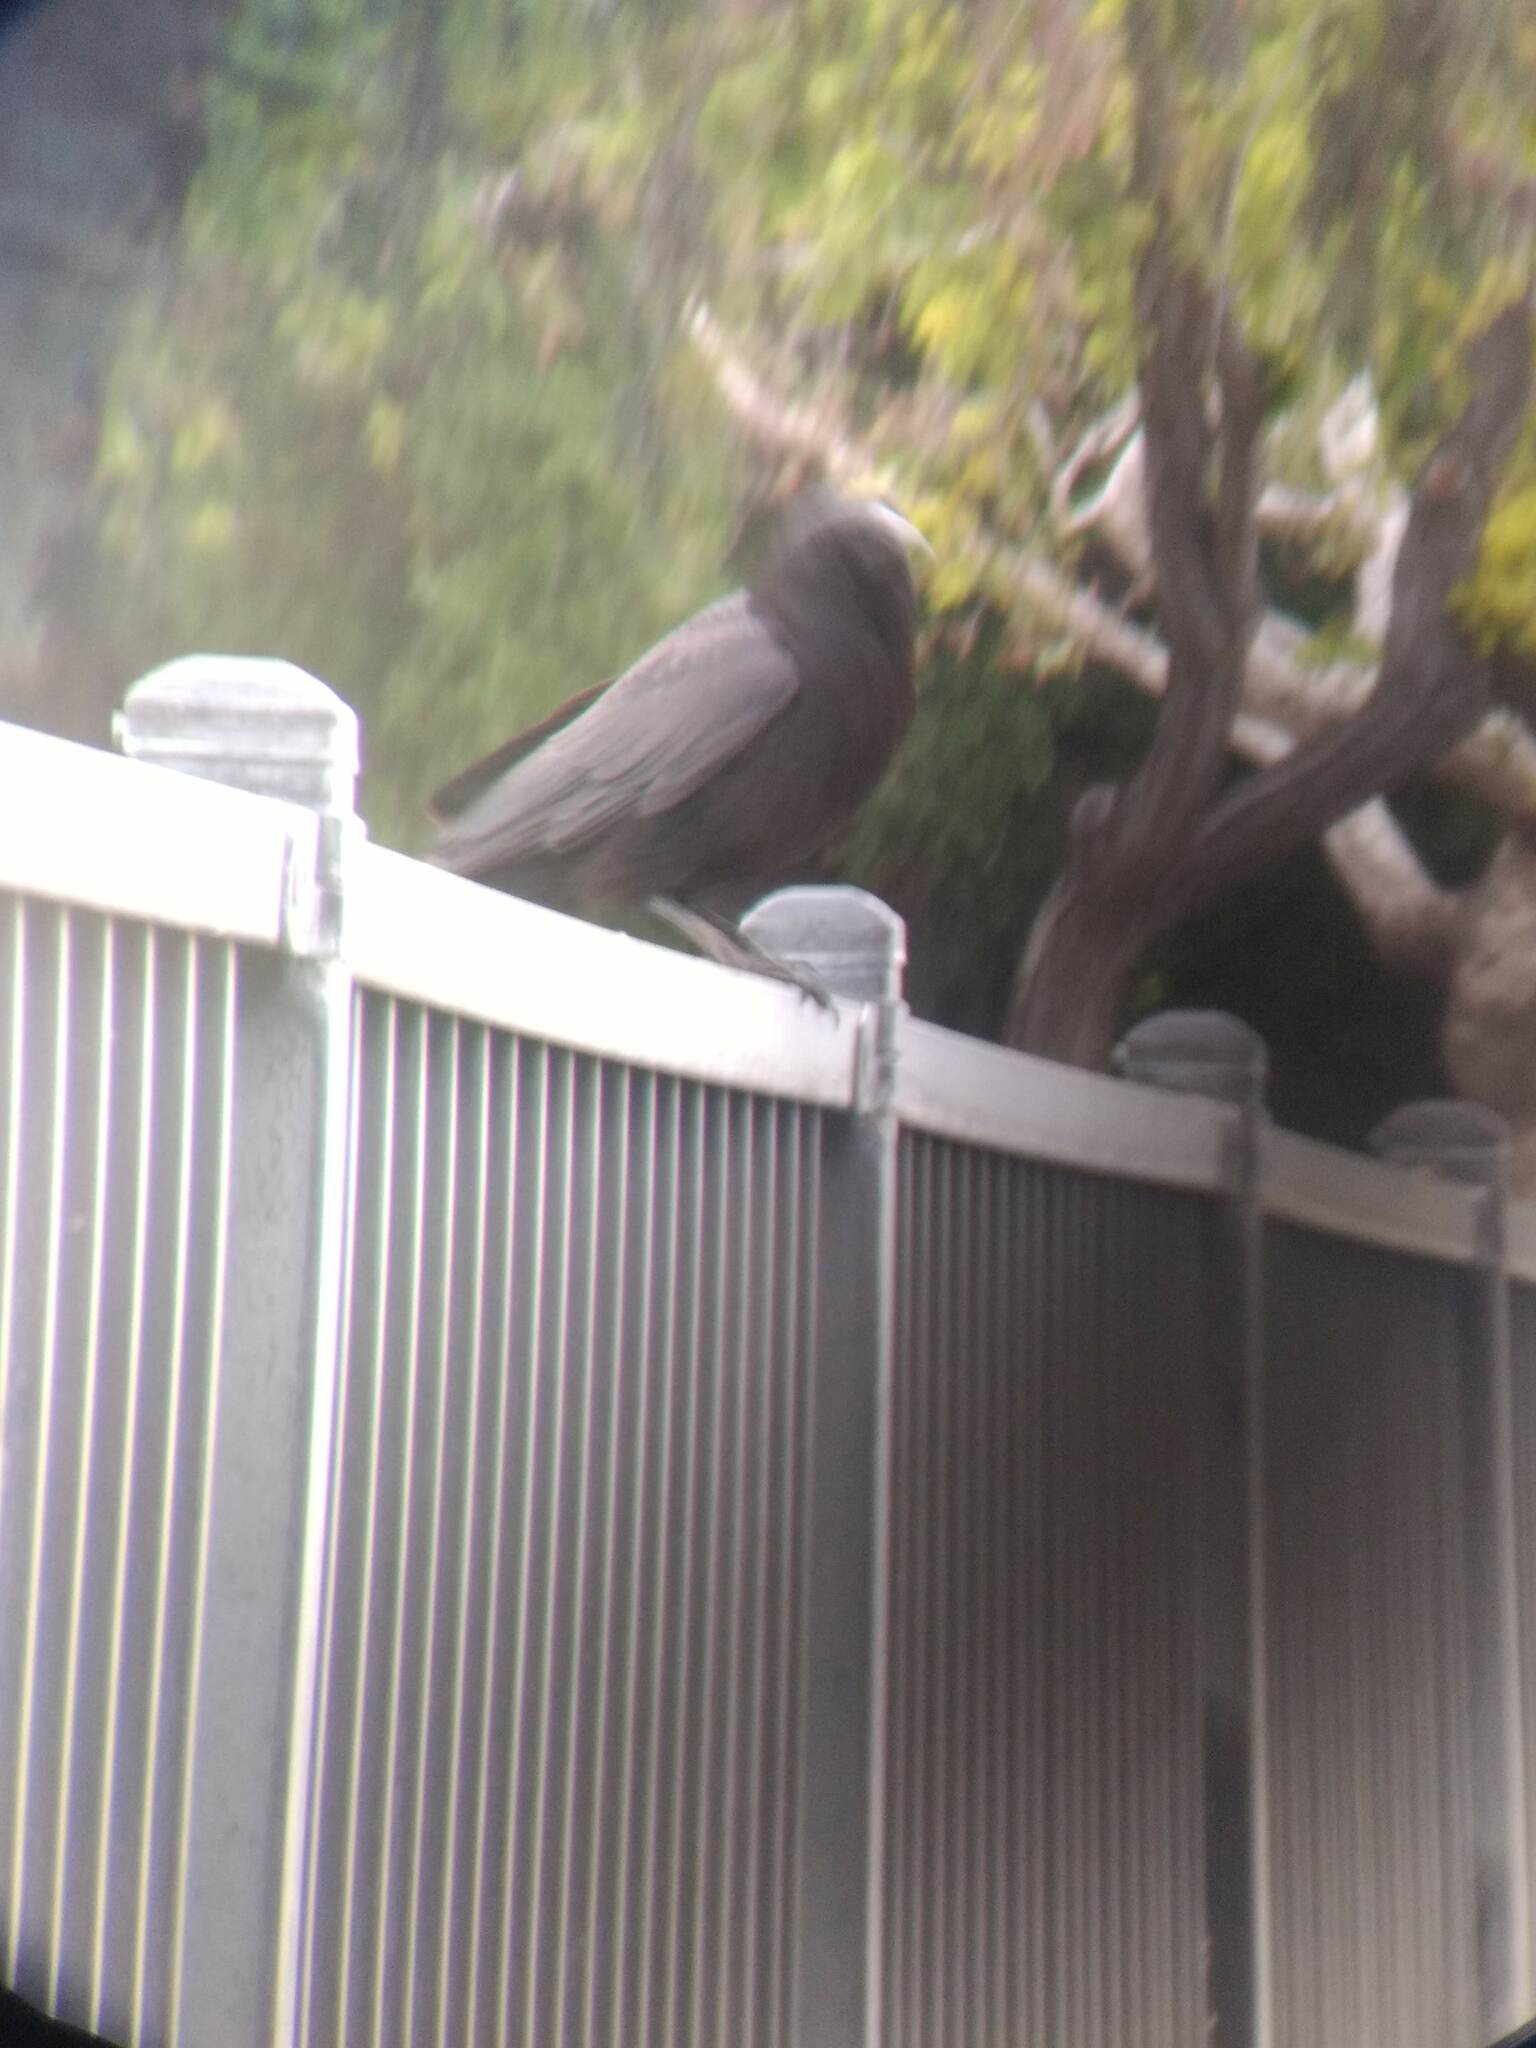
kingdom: Animalia
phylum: Chordata
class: Aves
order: Passeriformes
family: Corvidae
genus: Corvus
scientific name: Corvus brachyrhynchos
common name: American crow
